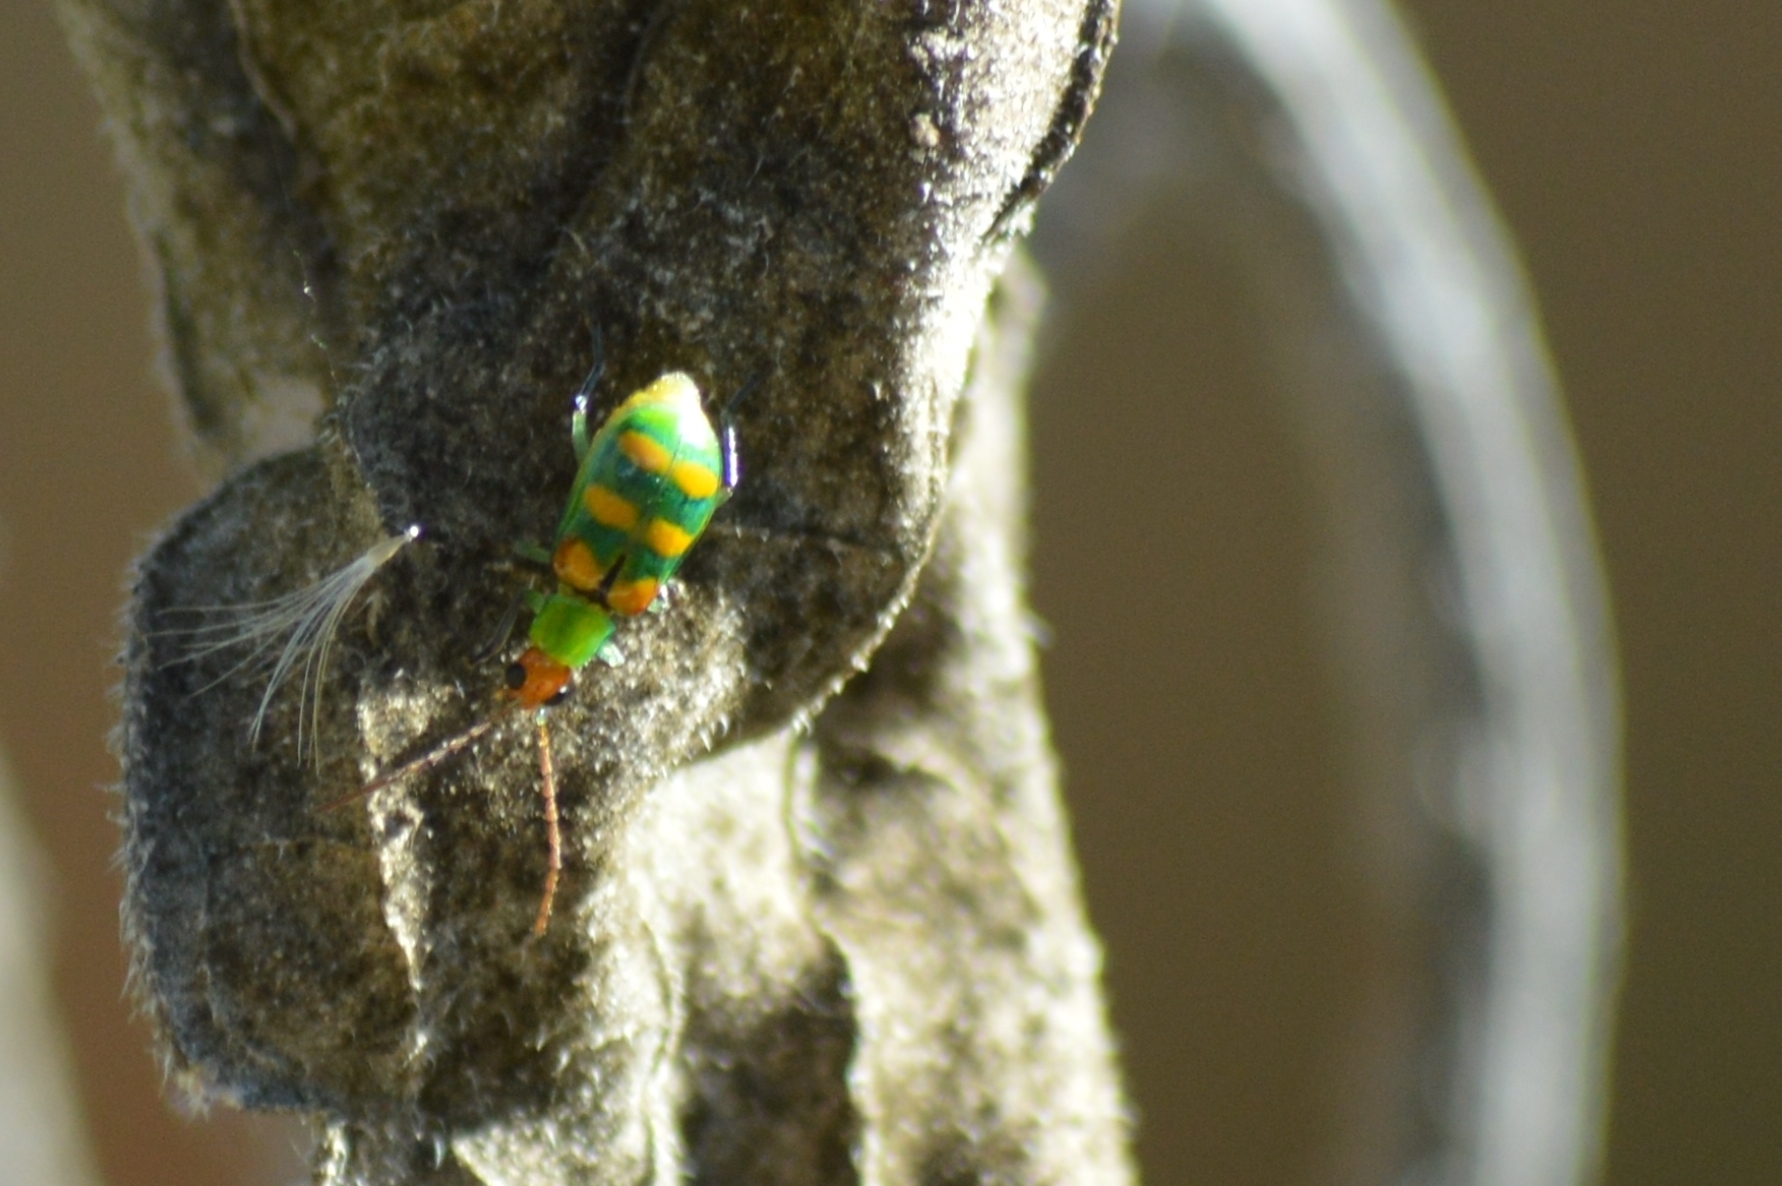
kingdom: Animalia
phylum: Arthropoda
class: Insecta
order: Coleoptera
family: Chrysomelidae
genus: Diabrotica
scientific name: Diabrotica speciosa
